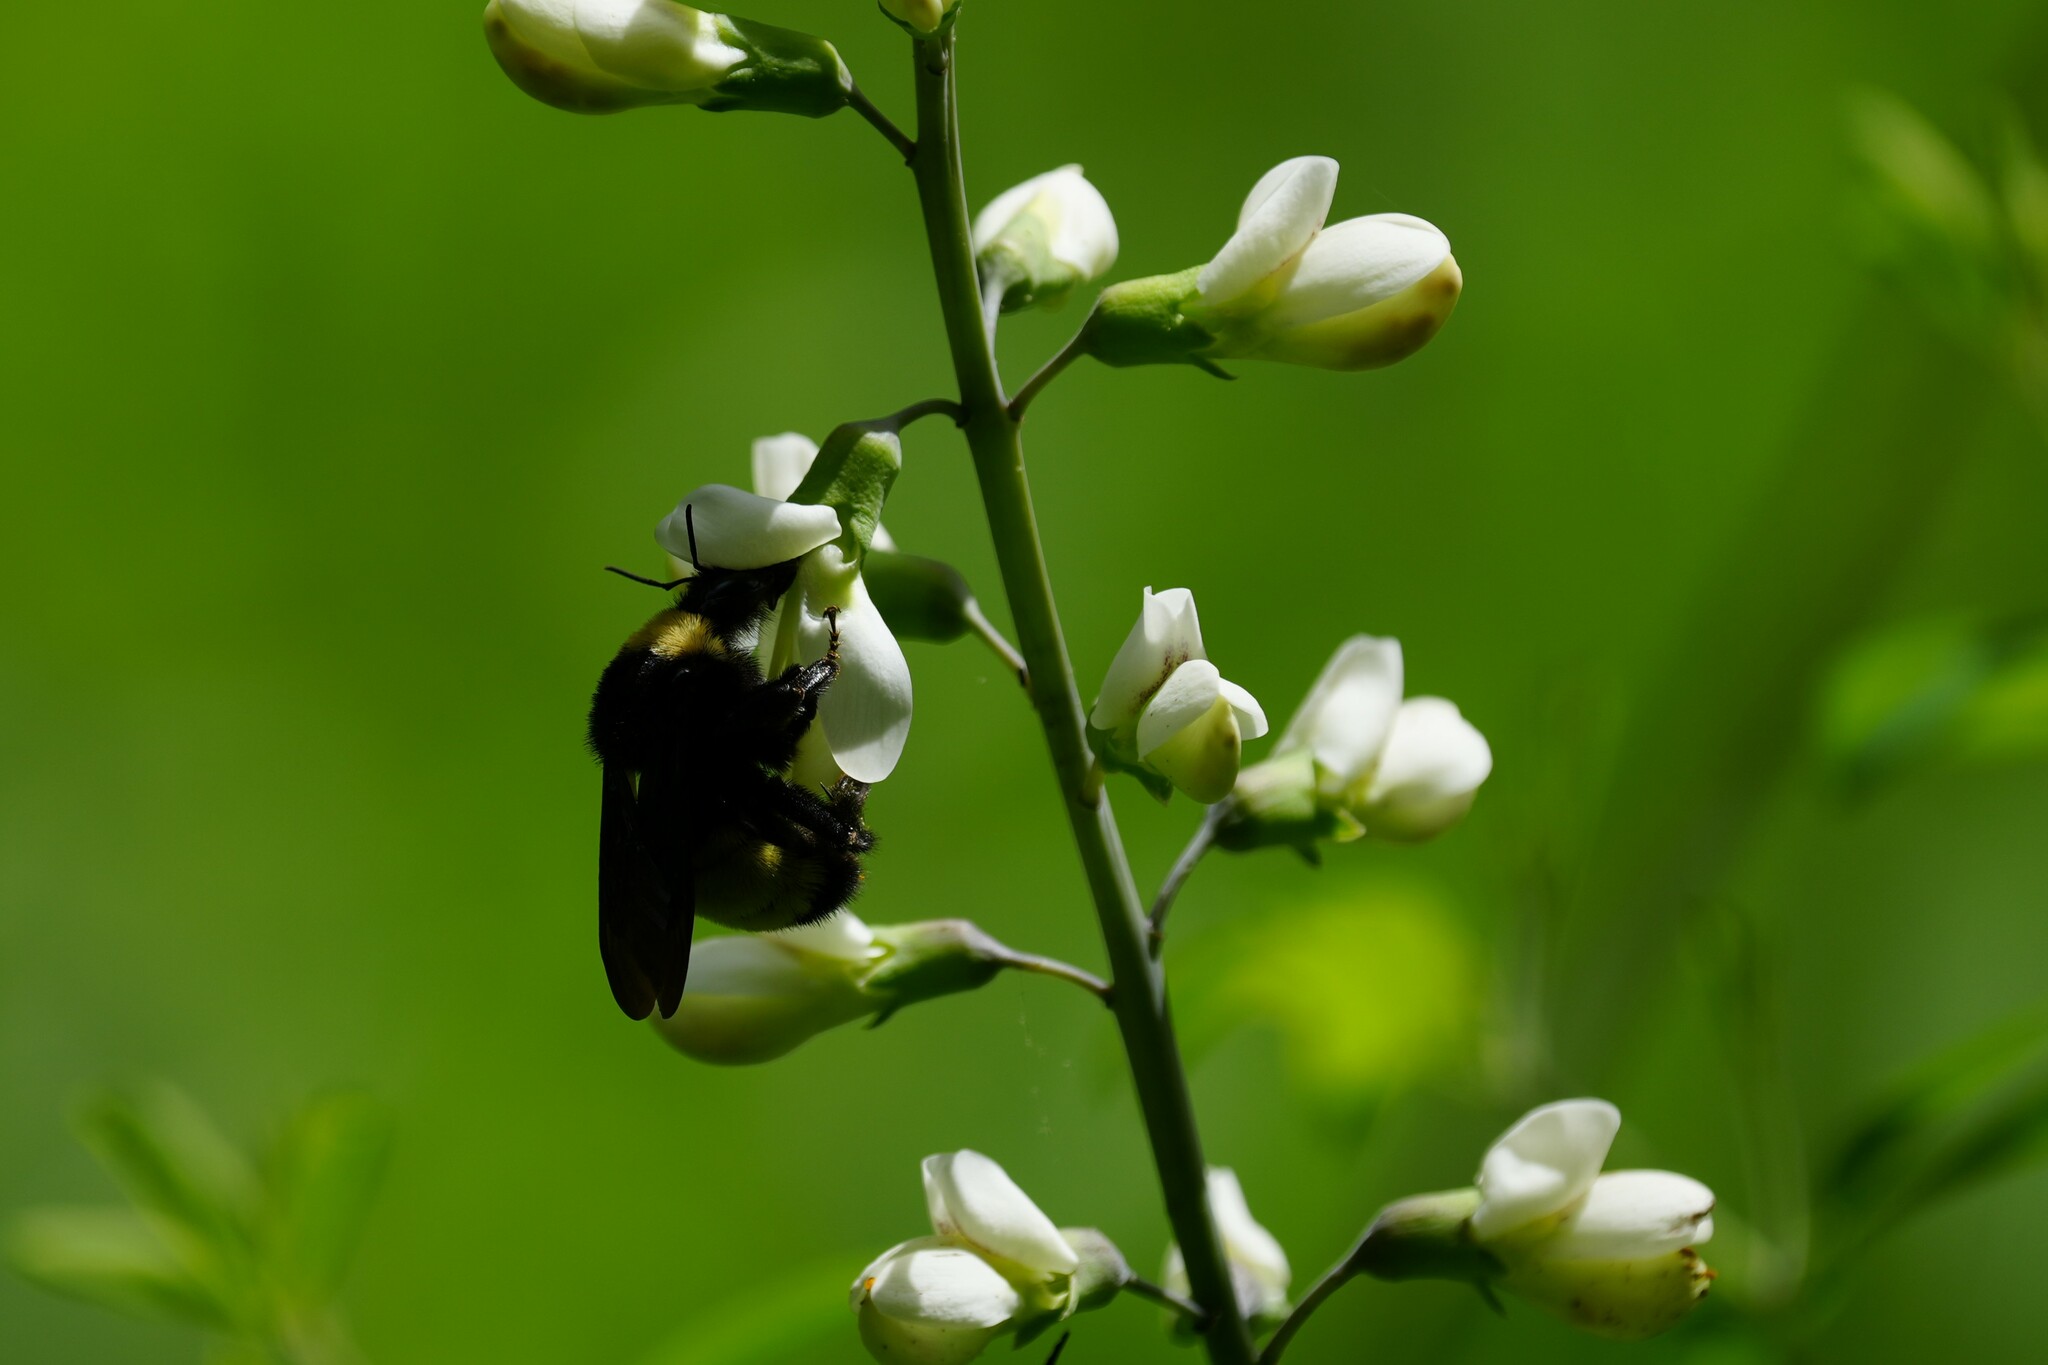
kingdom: Animalia
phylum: Arthropoda
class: Insecta
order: Hymenoptera
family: Apidae
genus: Bombus
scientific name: Bombus pensylvanicus
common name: Bumble bee
